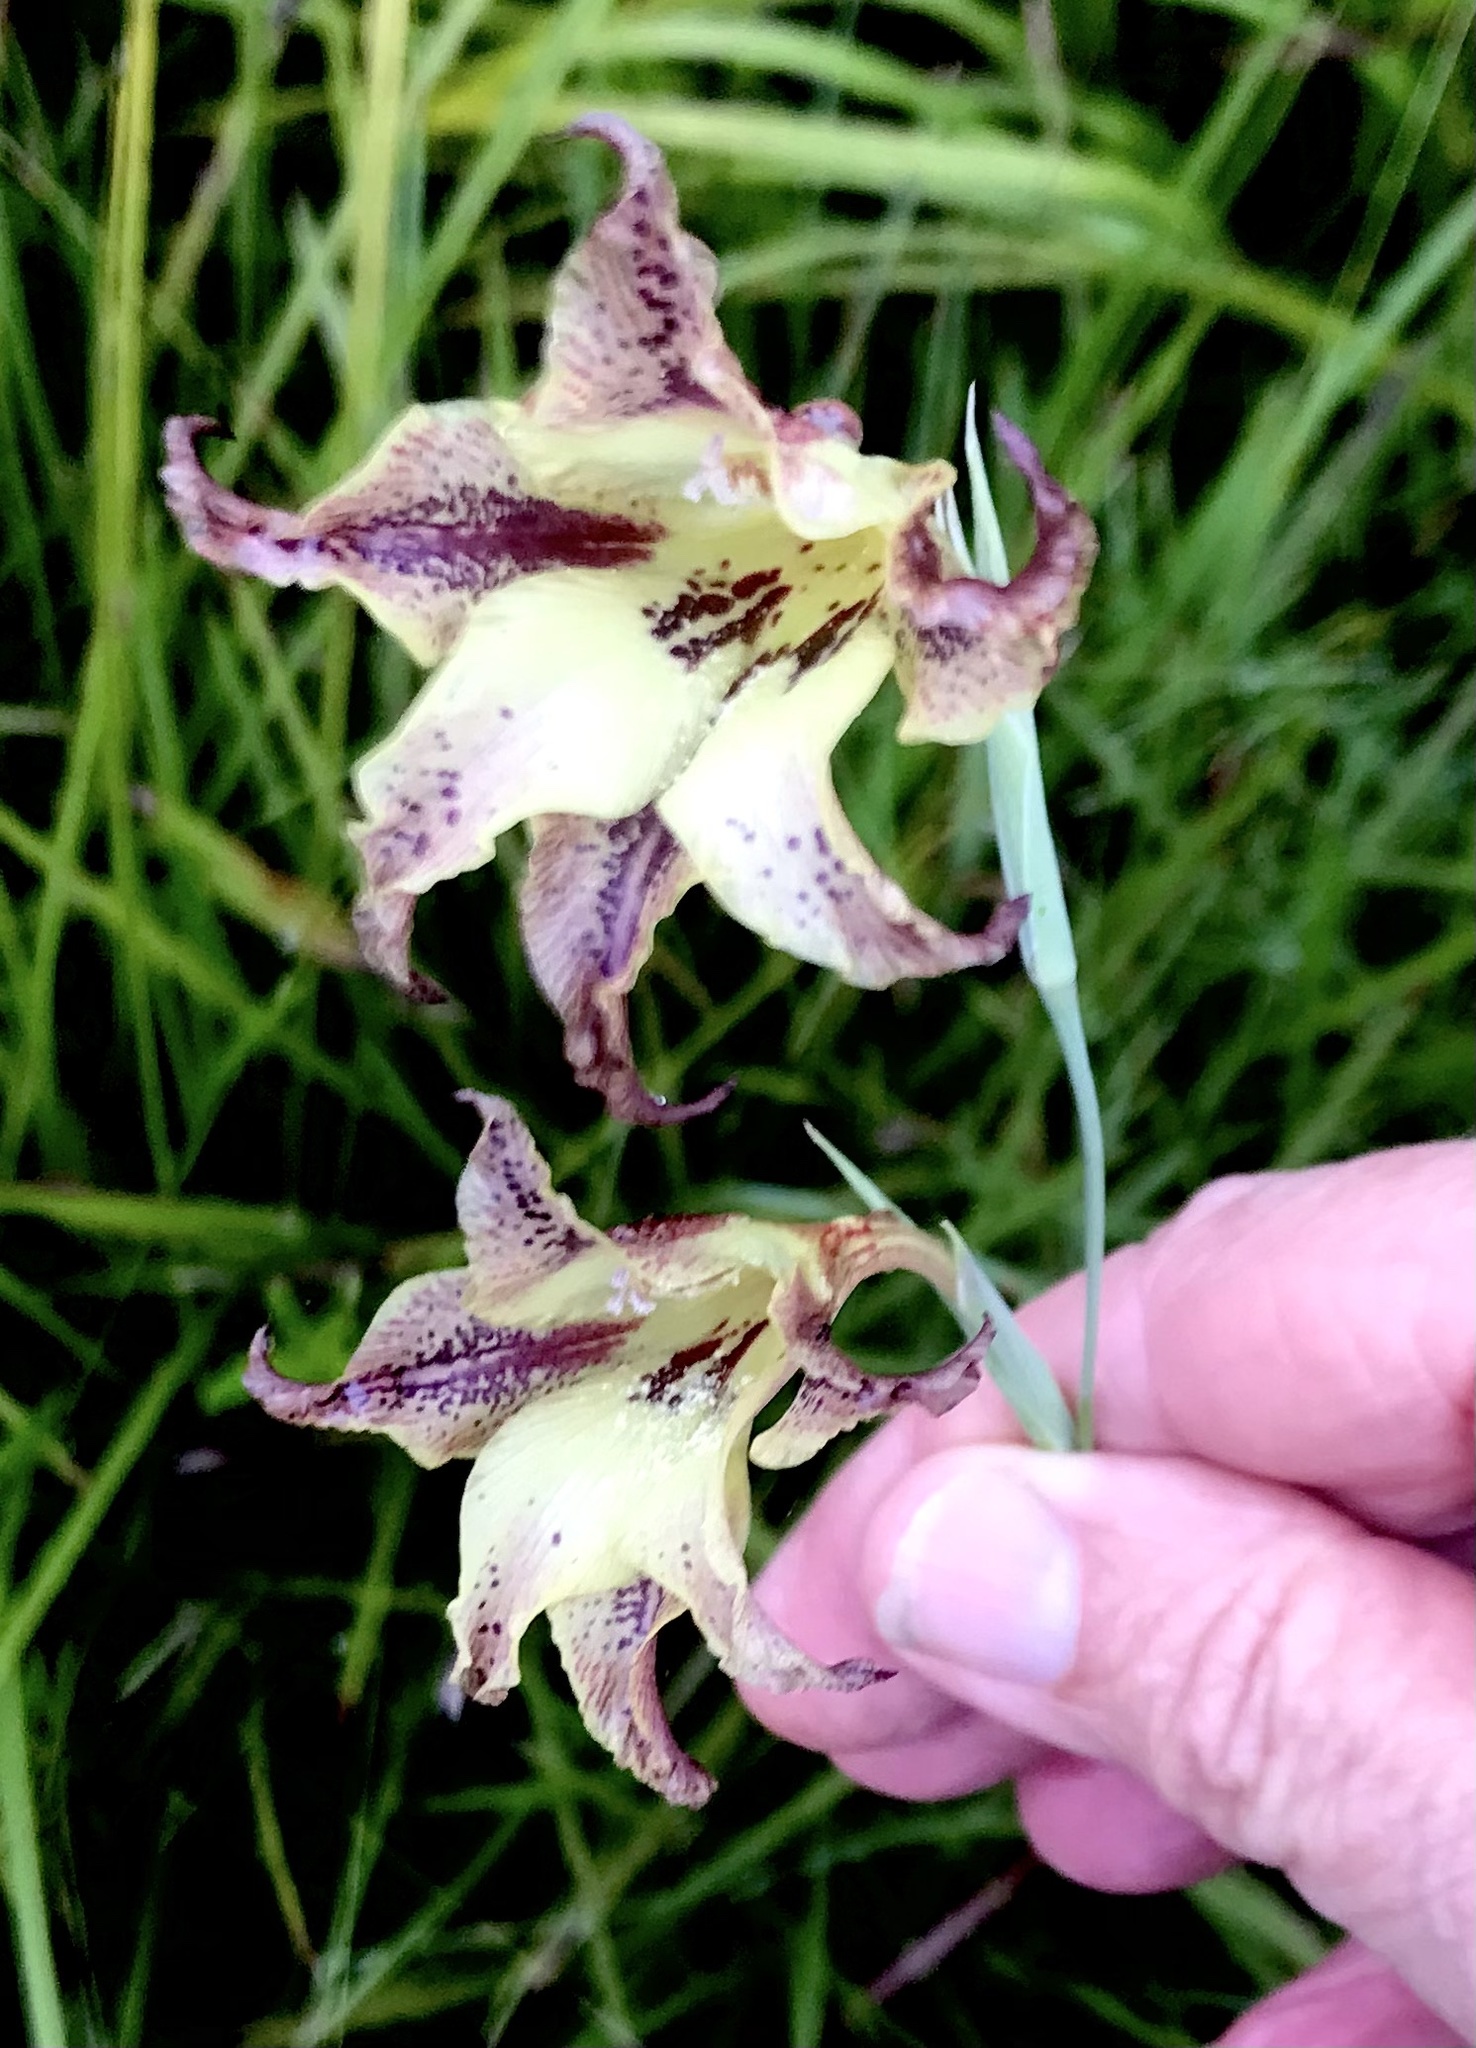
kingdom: Plantae
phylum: Tracheophyta
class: Liliopsida
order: Asparagales
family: Iridaceae
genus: Gladiolus
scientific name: Gladiolus maculatus
